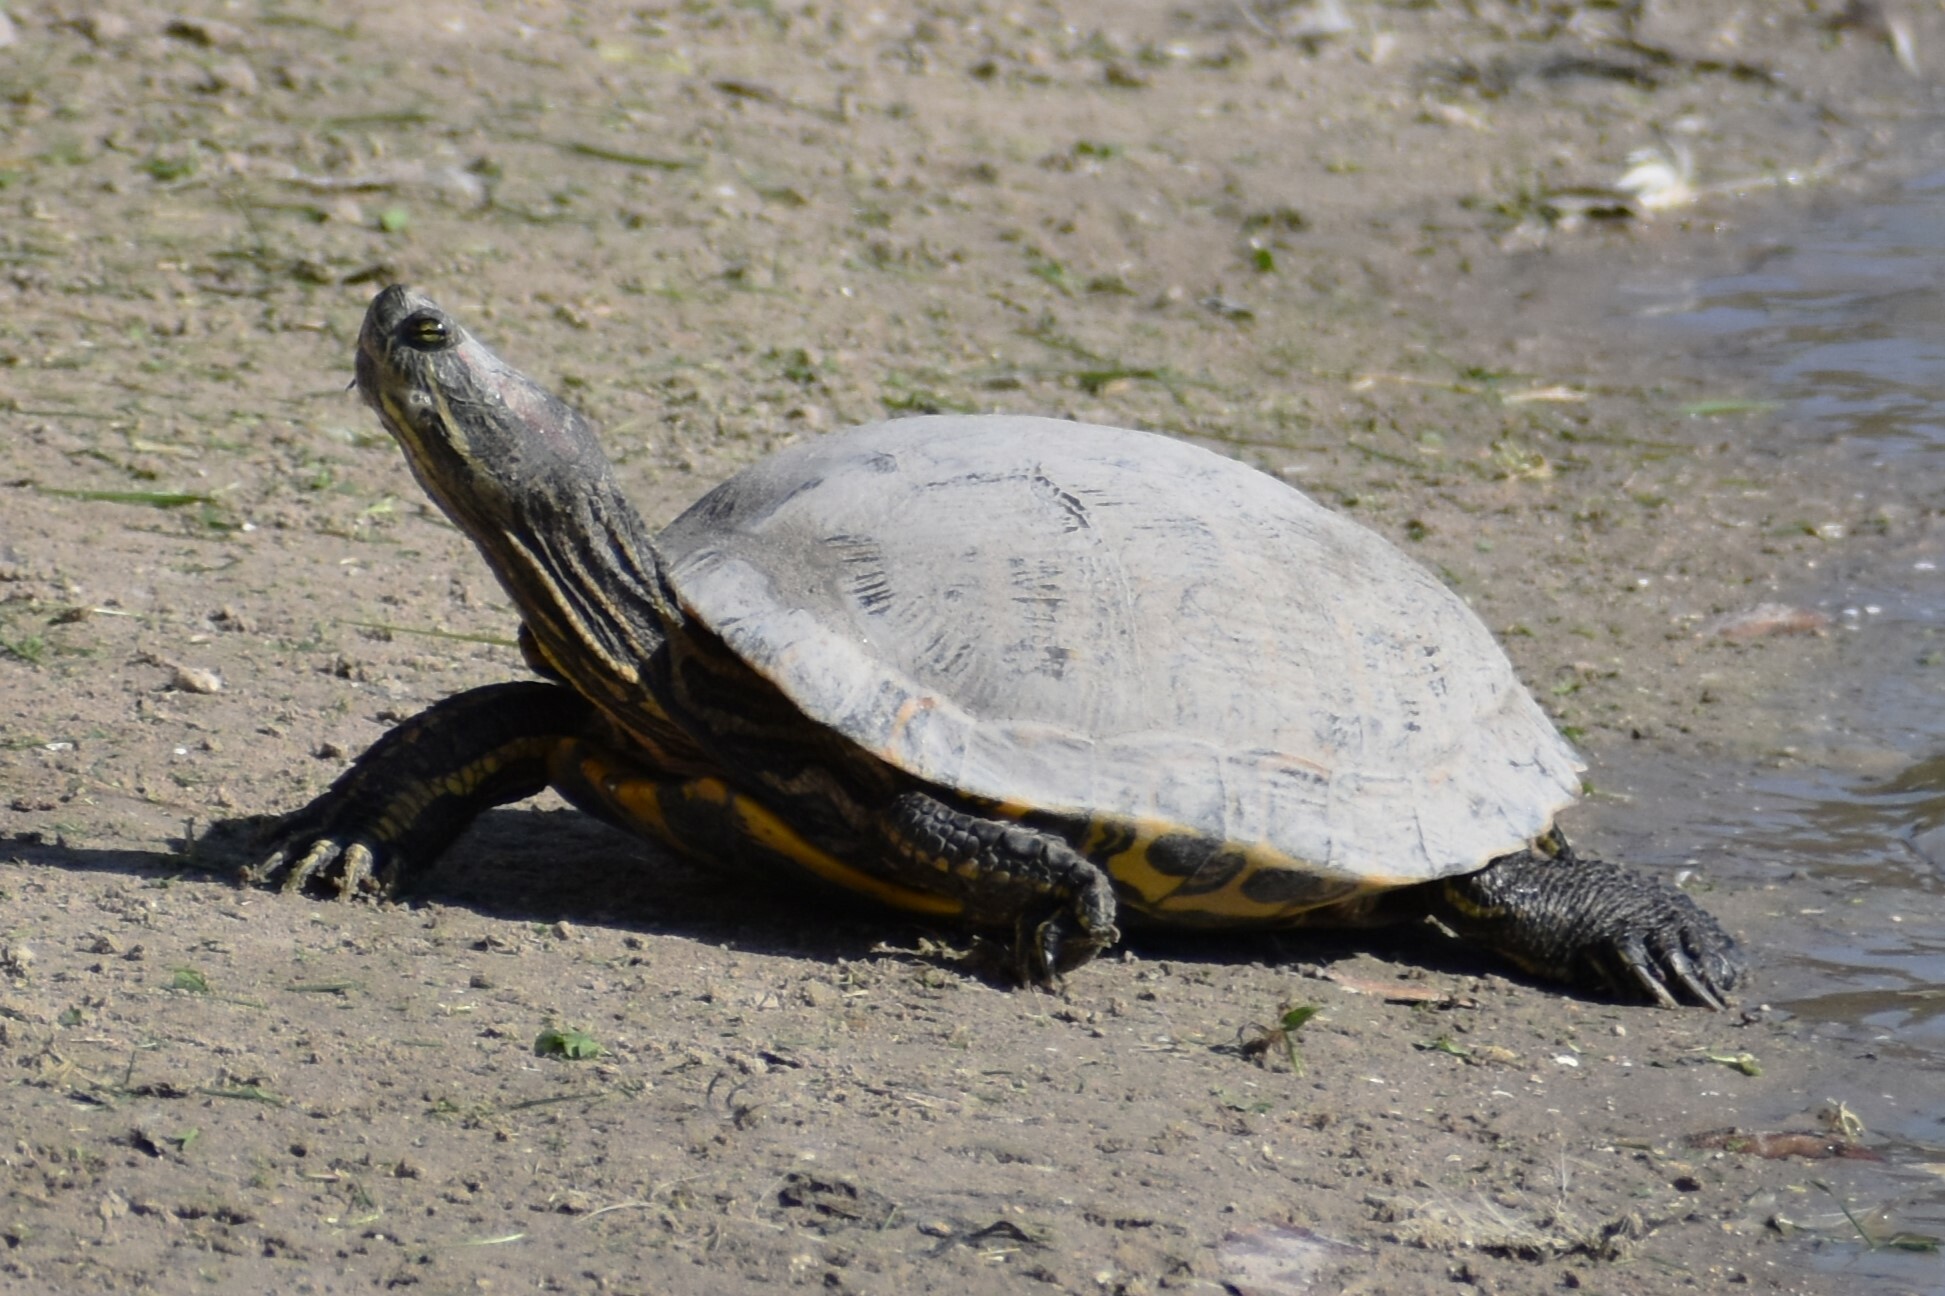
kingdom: Animalia
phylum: Chordata
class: Testudines
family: Emydidae
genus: Trachemys
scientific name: Trachemys scripta
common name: Slider
